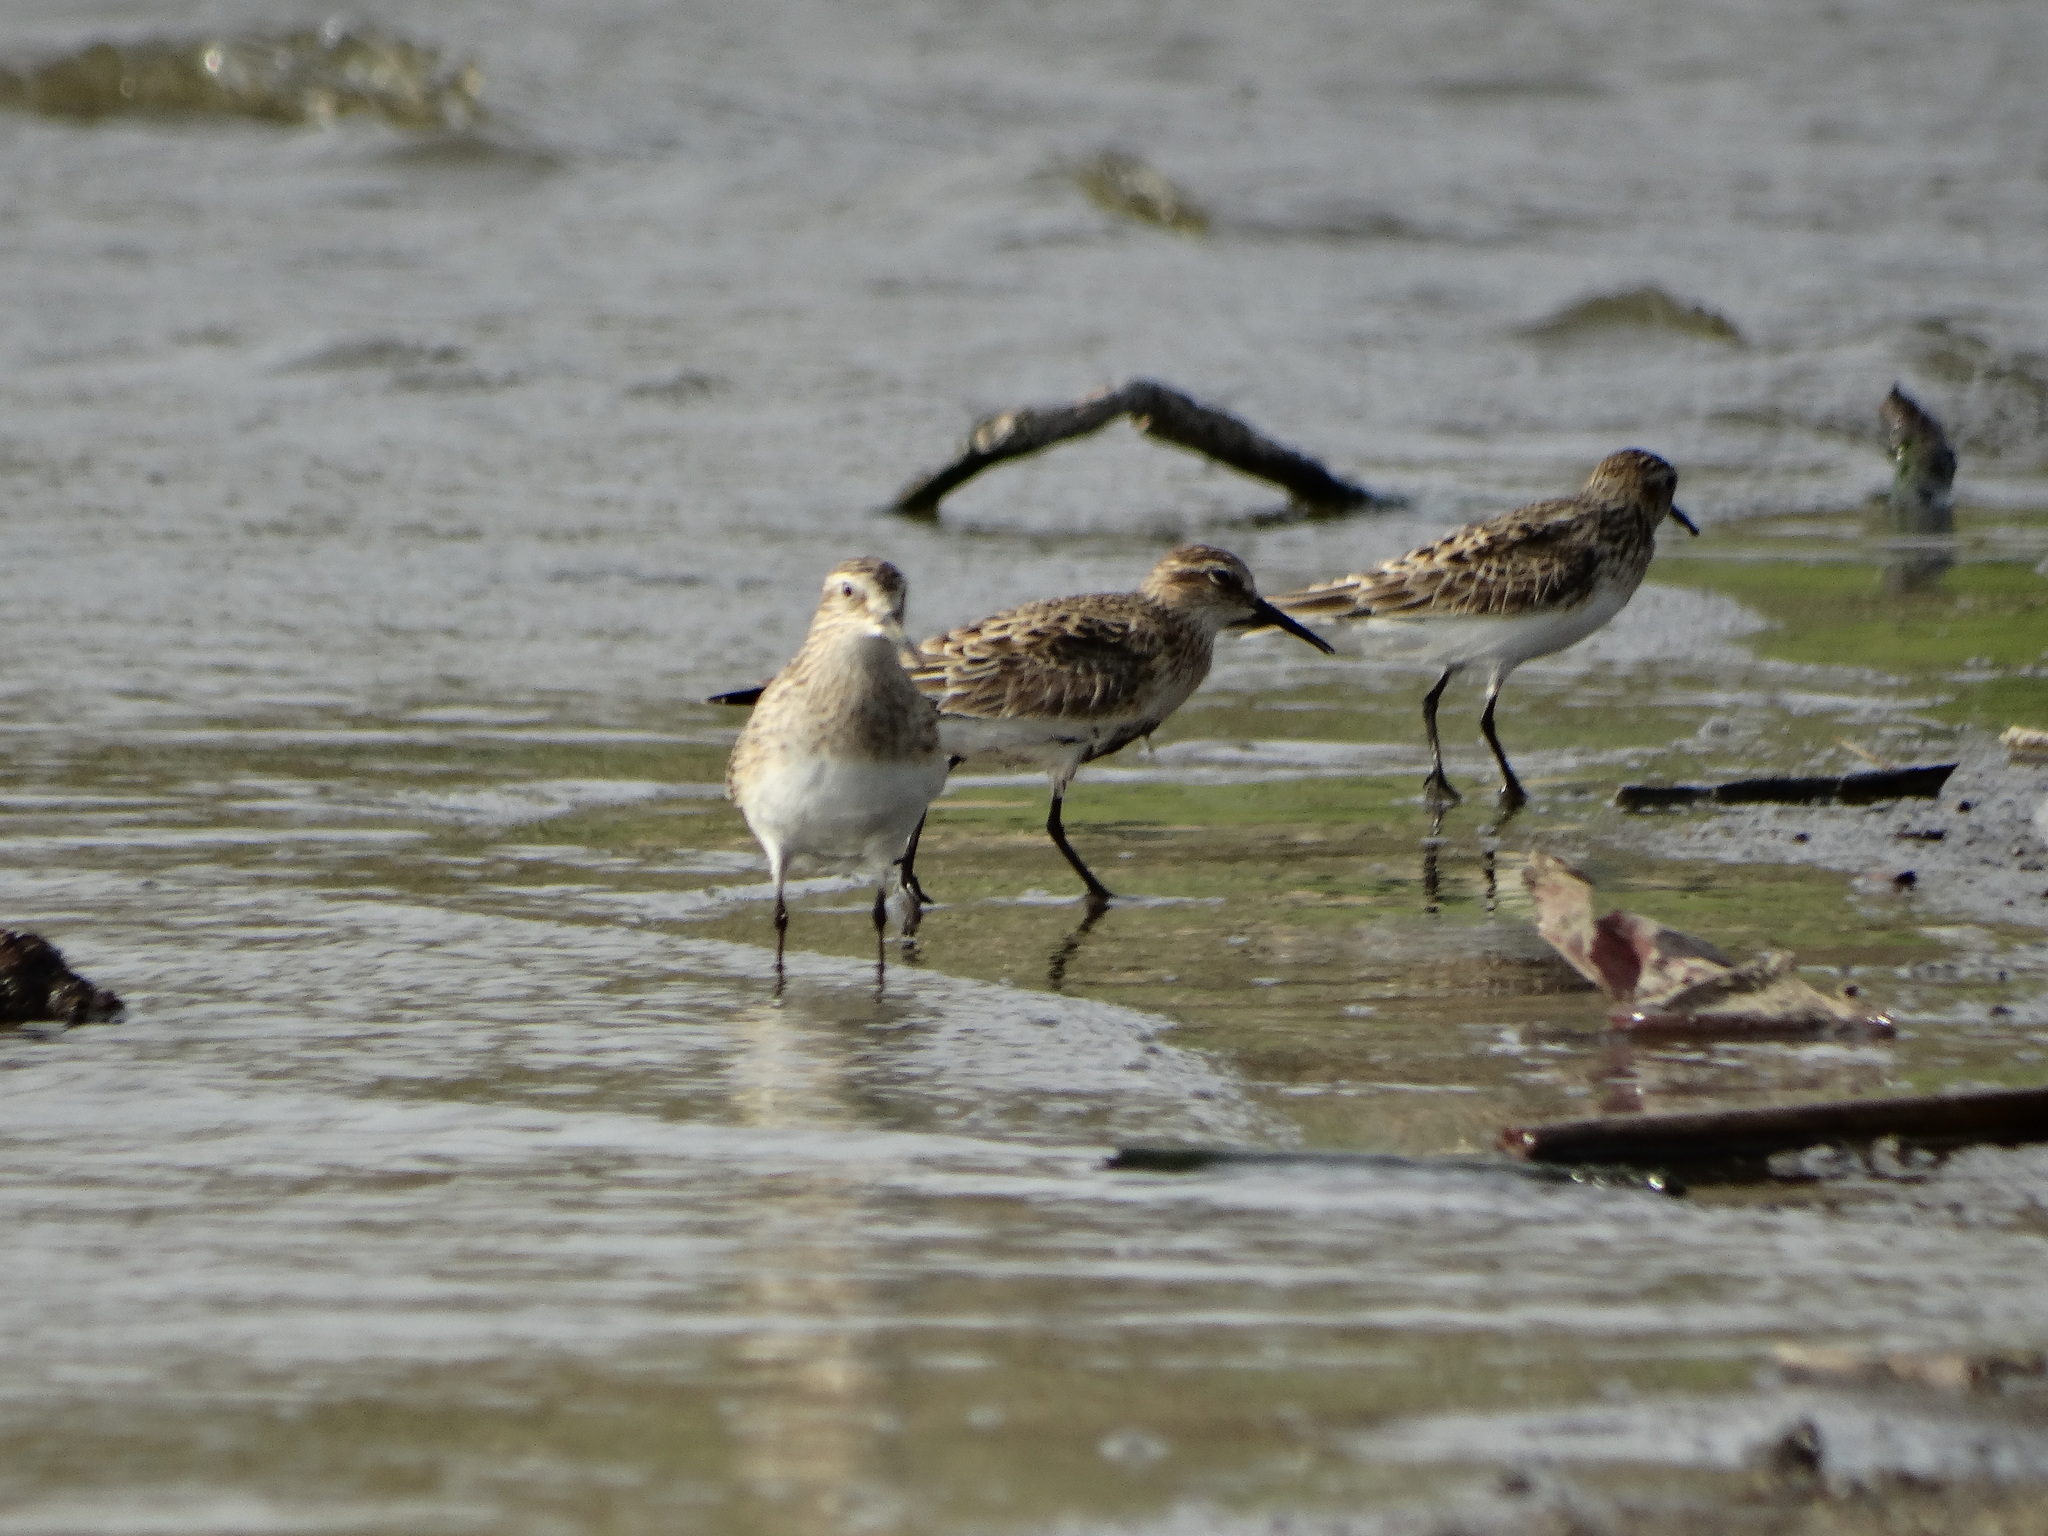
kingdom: Animalia
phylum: Chordata
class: Aves
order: Charadriiformes
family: Scolopacidae
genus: Calidris
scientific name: Calidris minutilla
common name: Least sandpiper
